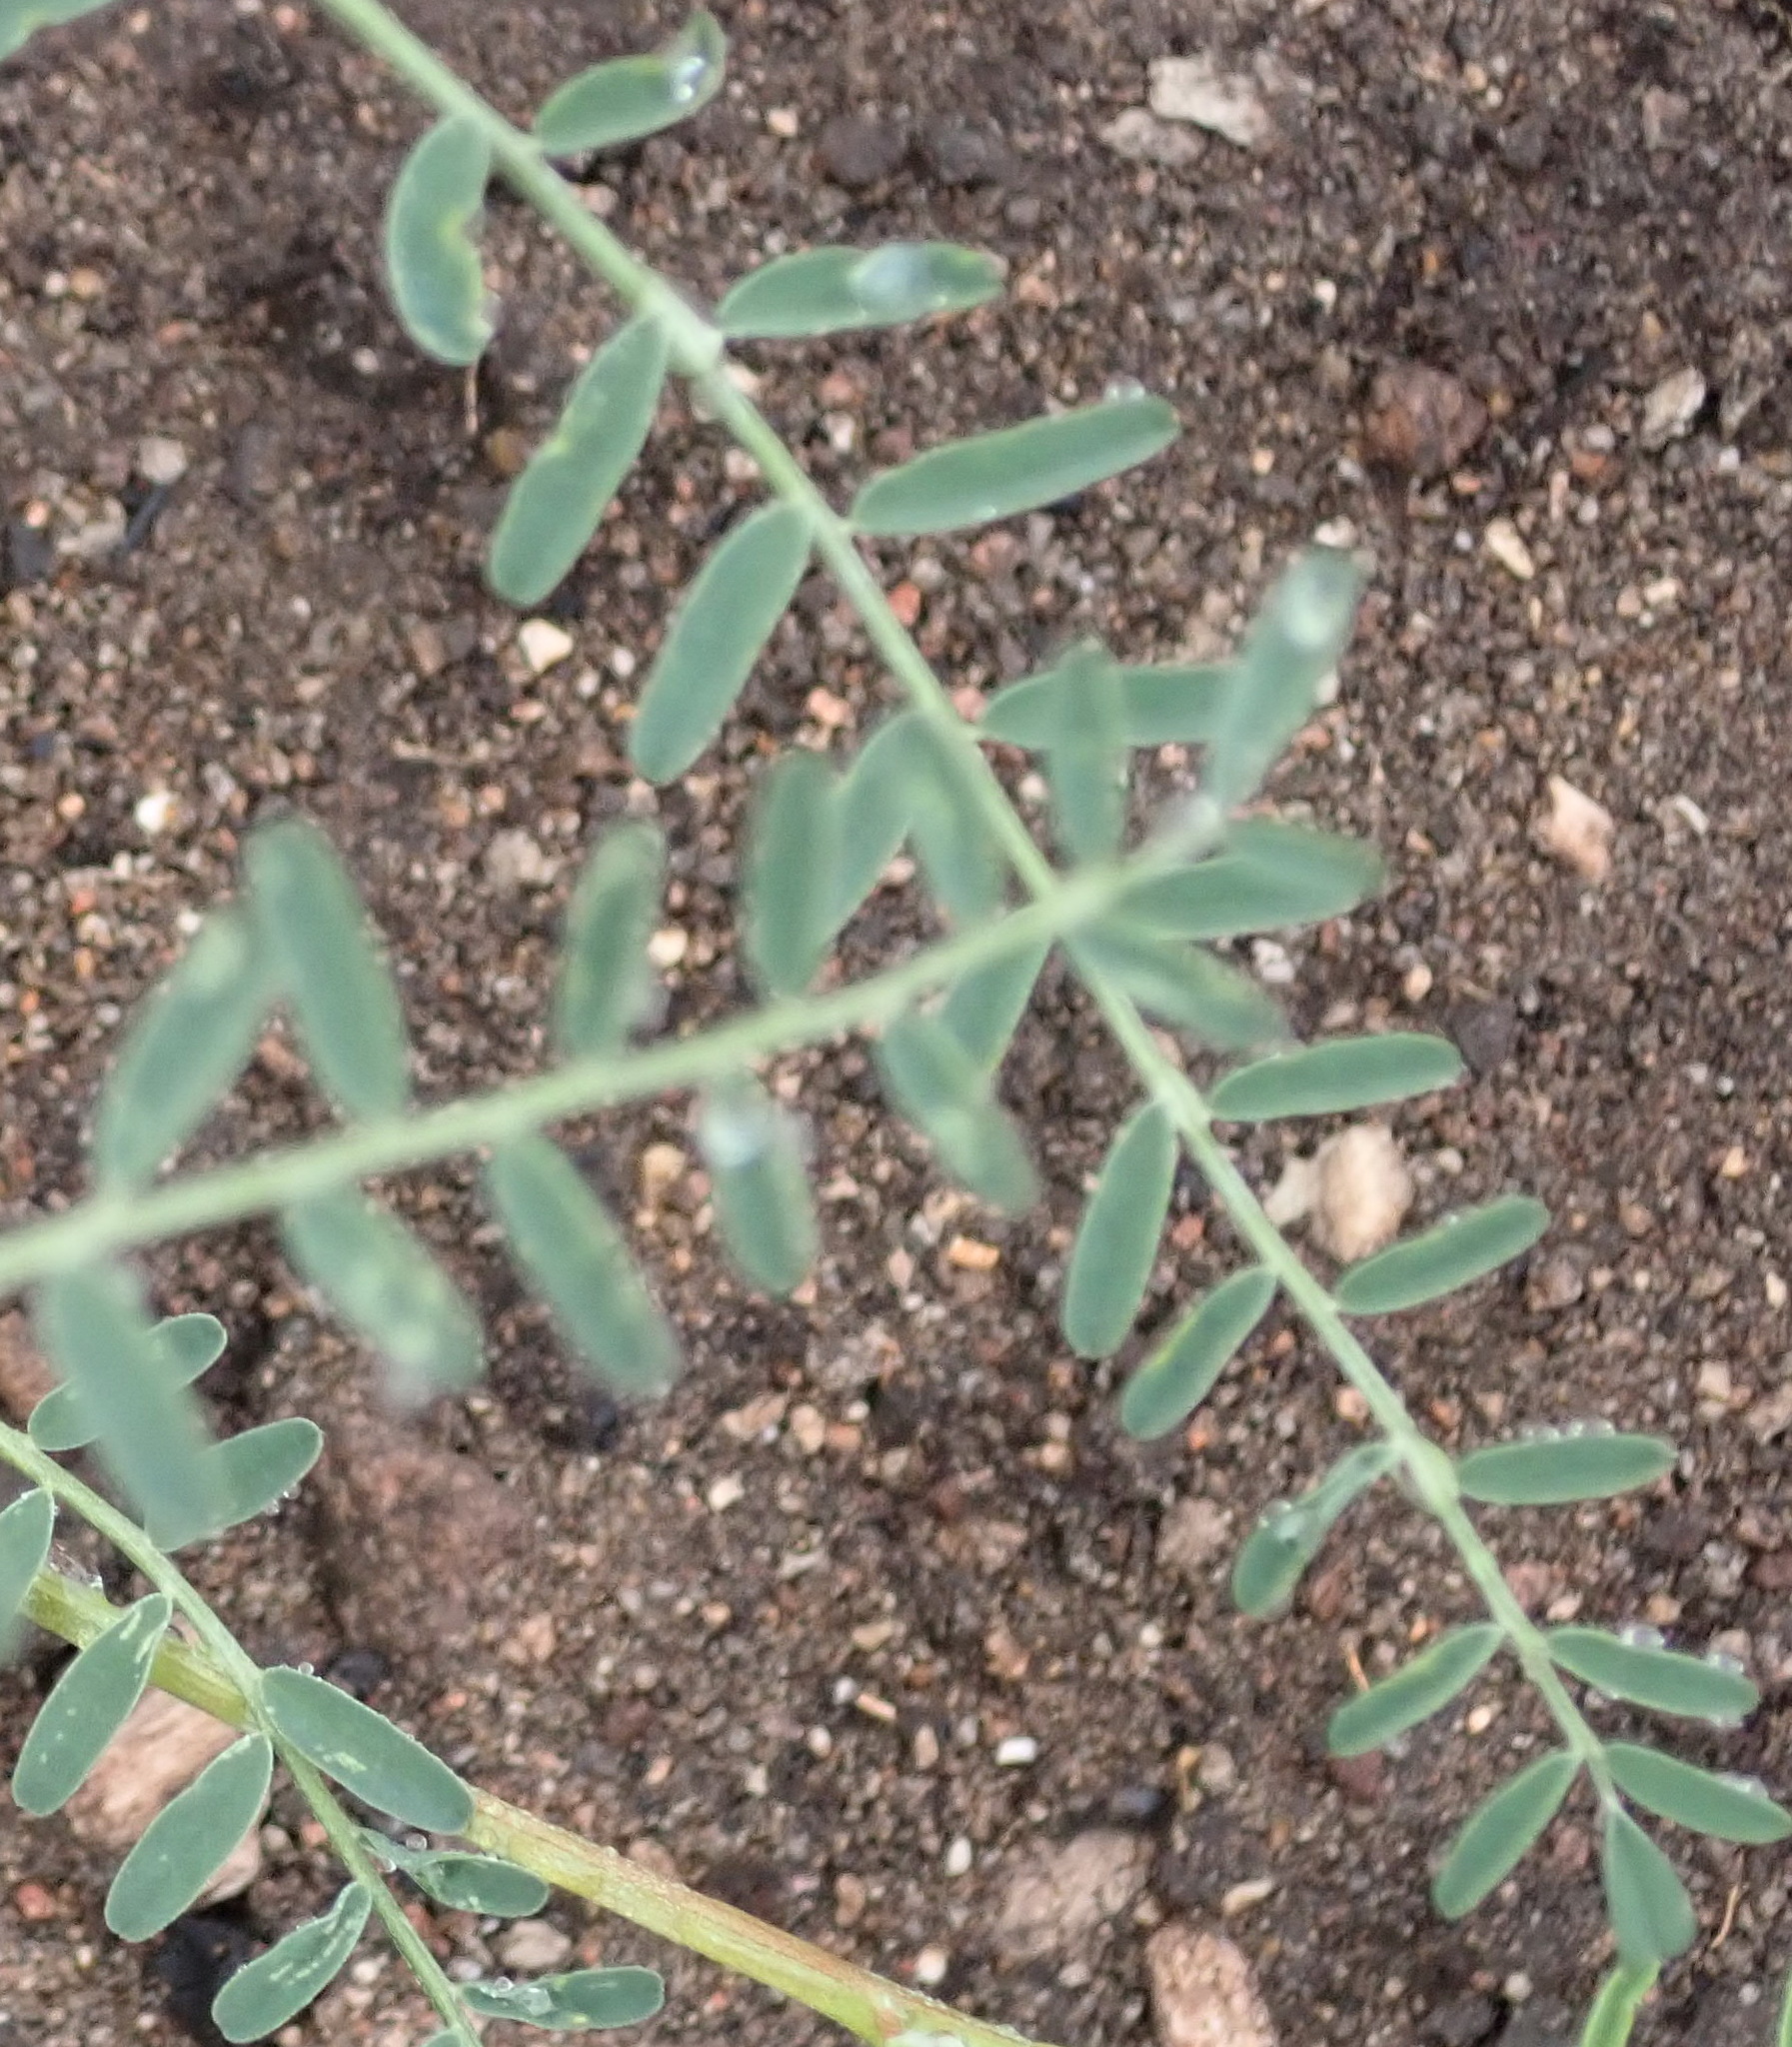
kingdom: Plantae
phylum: Tracheophyta
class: Magnoliopsida
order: Fabales
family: Fabaceae
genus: Lessertia
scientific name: Lessertia frutescens
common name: Balloon-pea
